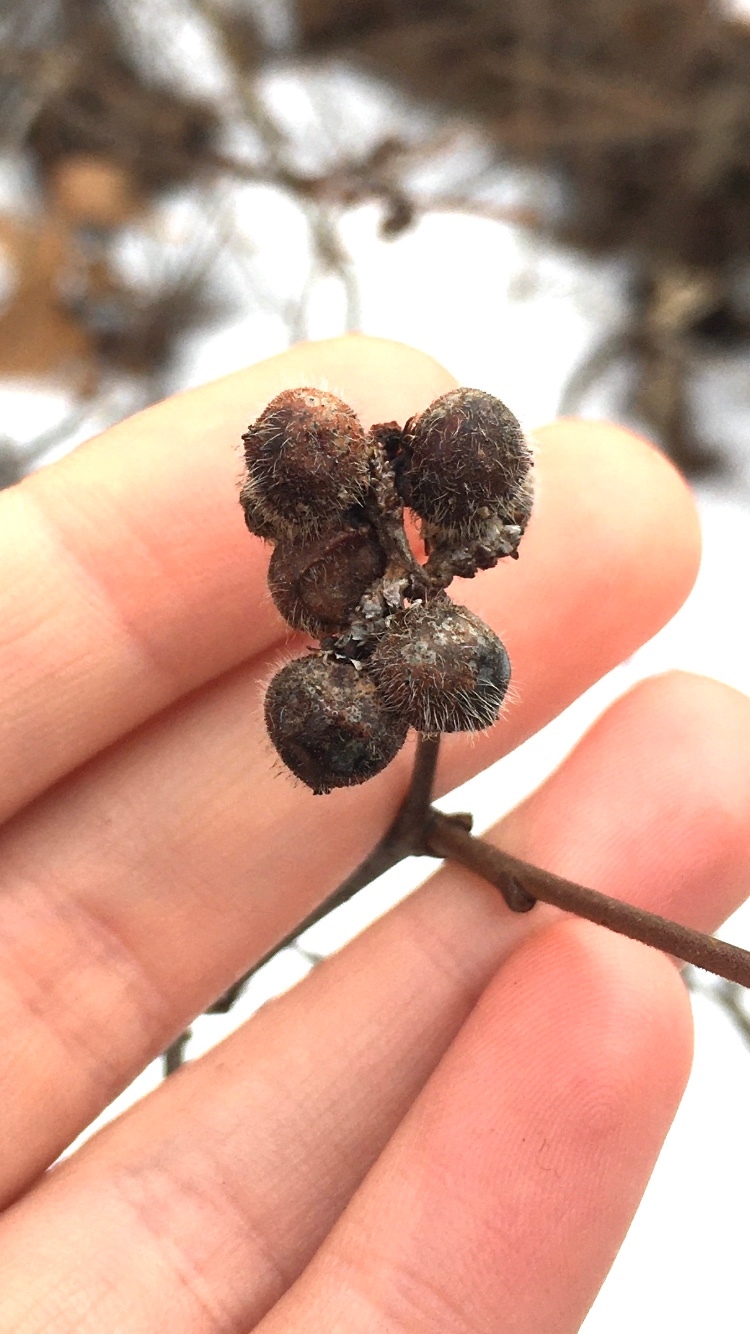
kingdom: Plantae
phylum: Tracheophyta
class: Magnoliopsida
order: Sapindales
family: Anacardiaceae
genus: Rhus
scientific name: Rhus aromatica
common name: Aromatic sumac
